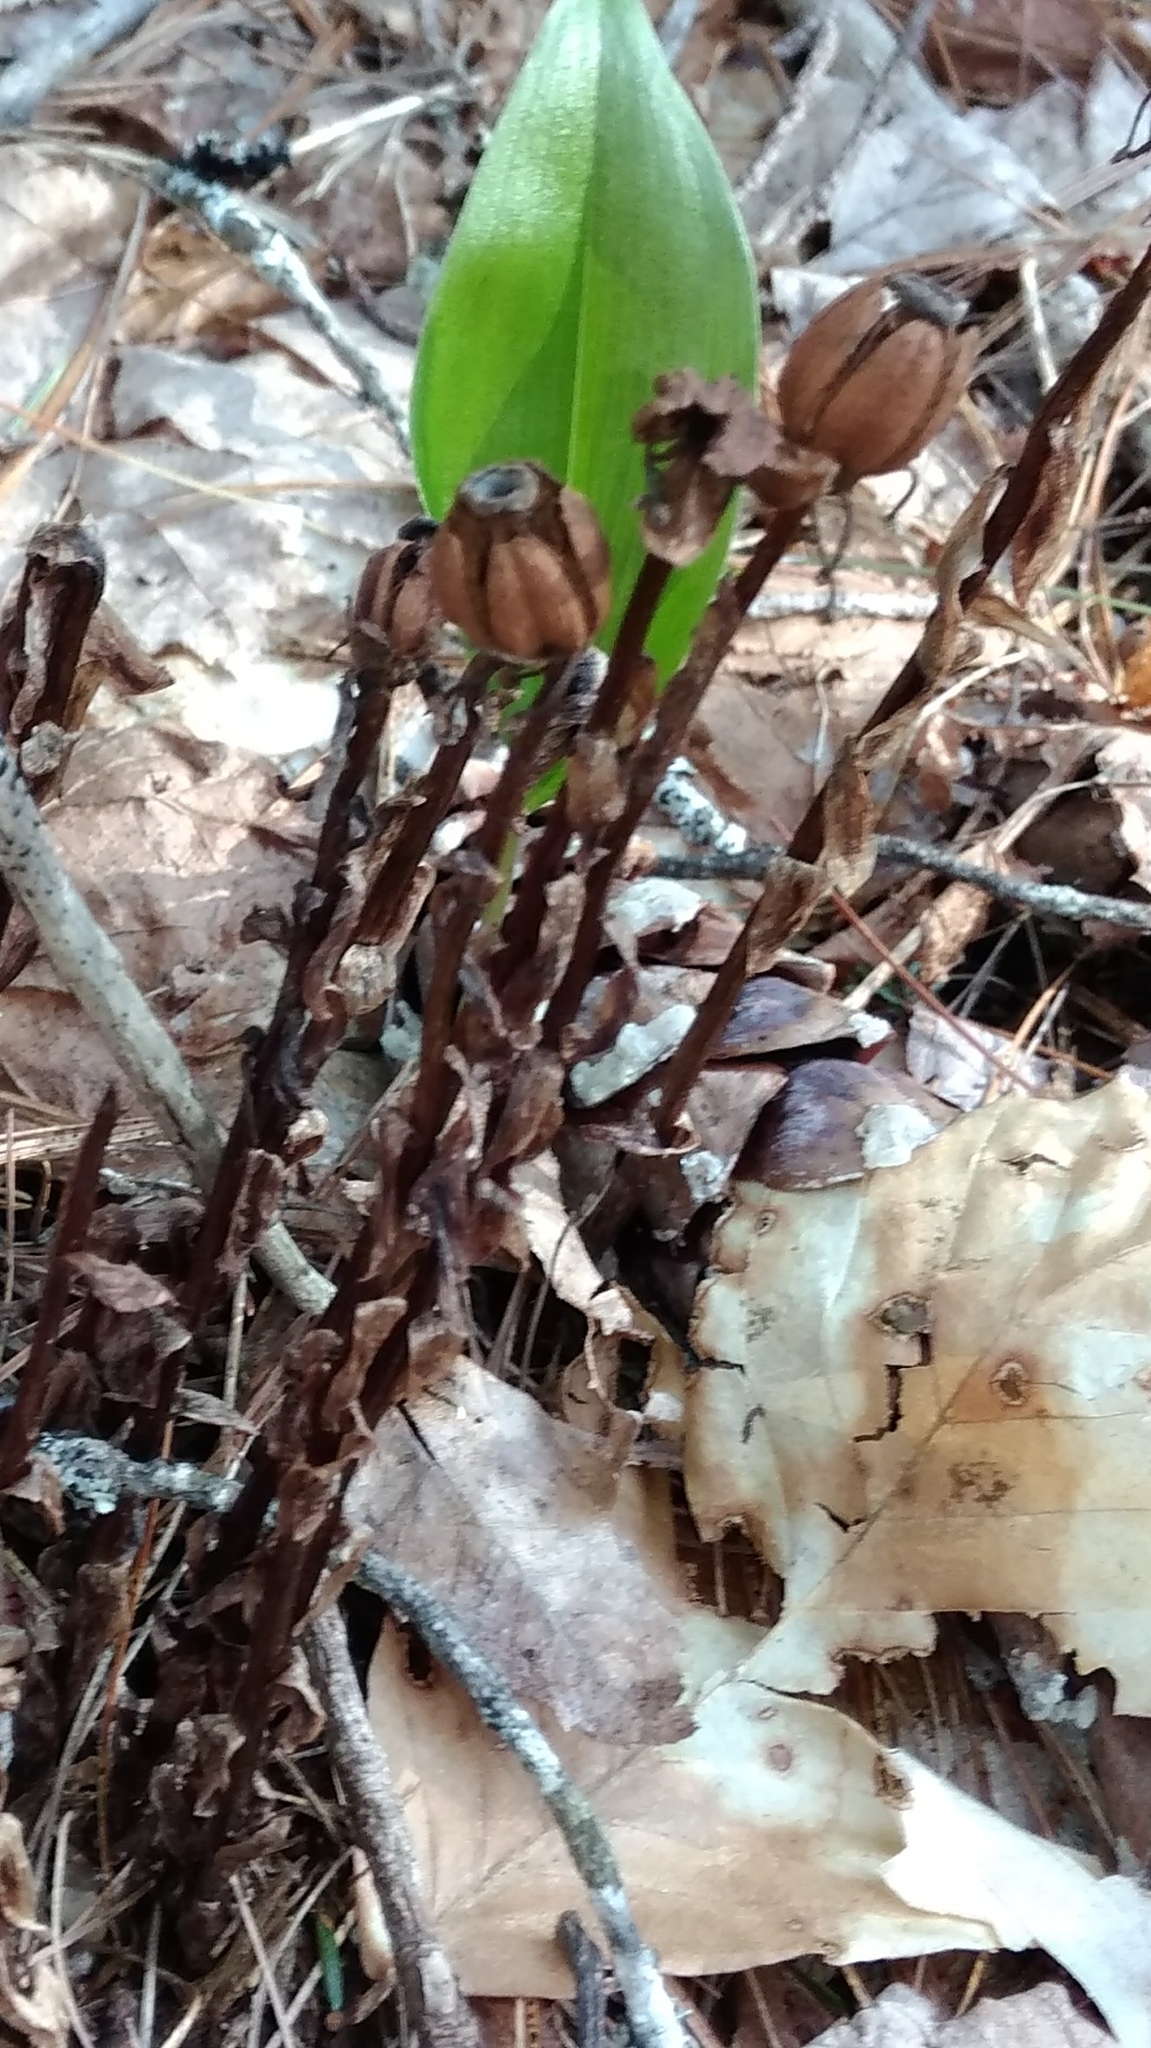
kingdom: Plantae
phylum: Tracheophyta
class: Magnoliopsida
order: Ericales
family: Ericaceae
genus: Monotropa
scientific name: Monotropa uniflora
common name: Convulsion root
